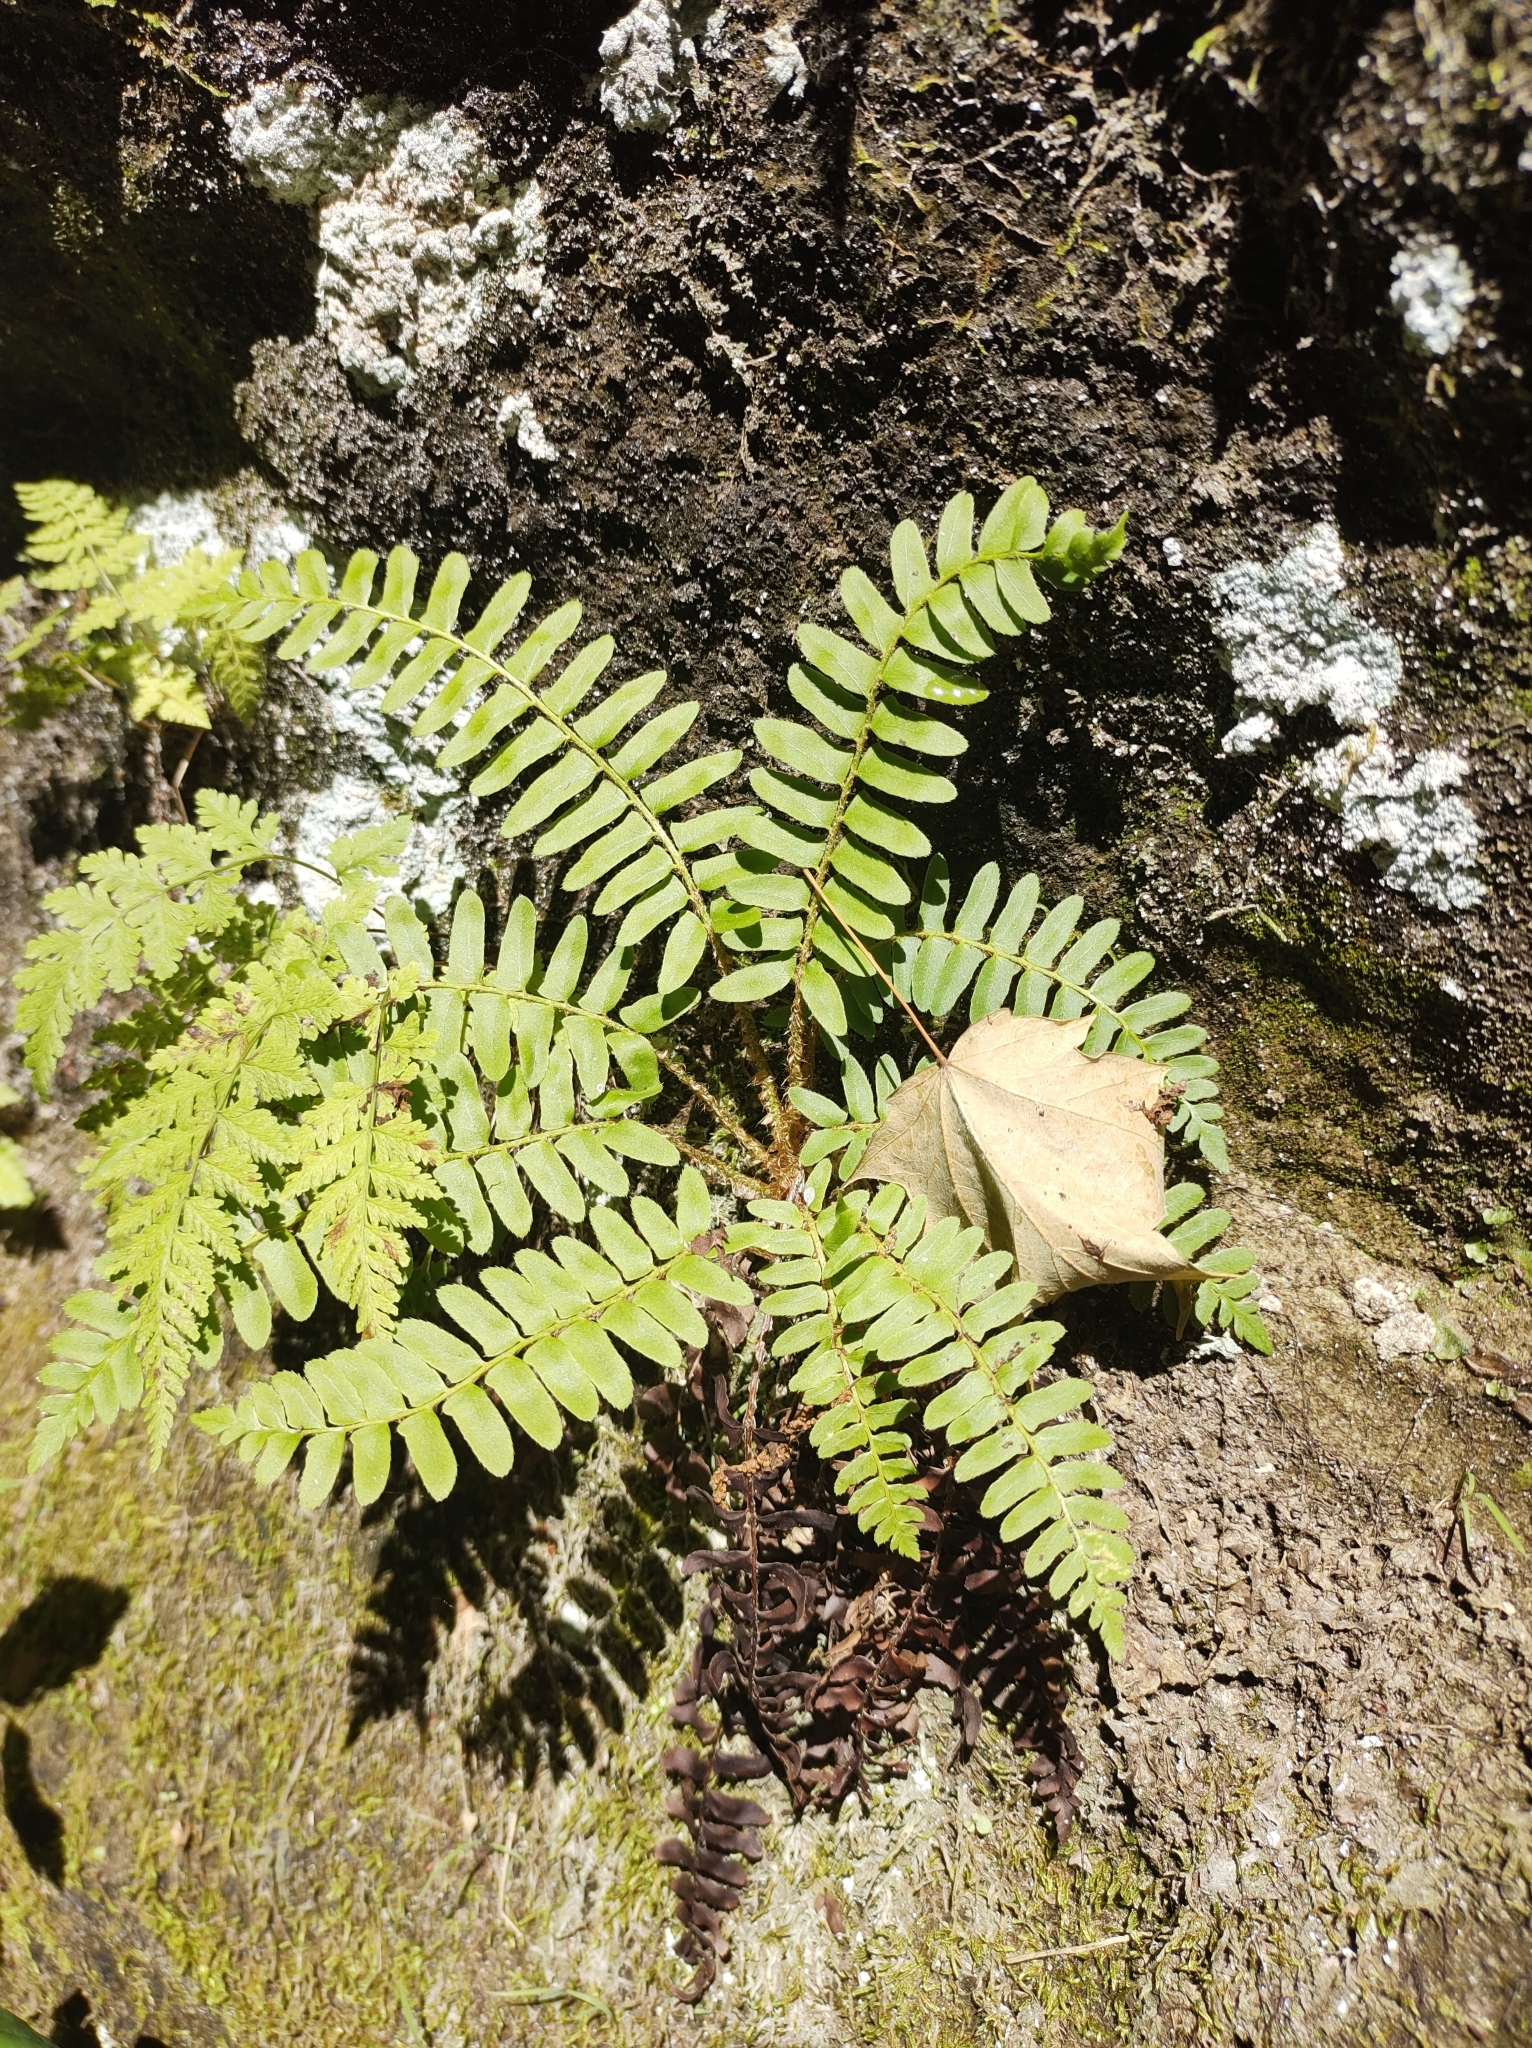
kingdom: Plantae
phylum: Tracheophyta
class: Polypodiopsida
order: Polypodiales
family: Dryopteridaceae
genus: Polystichum
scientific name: Polystichum acrostichoides
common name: Christmas fern
